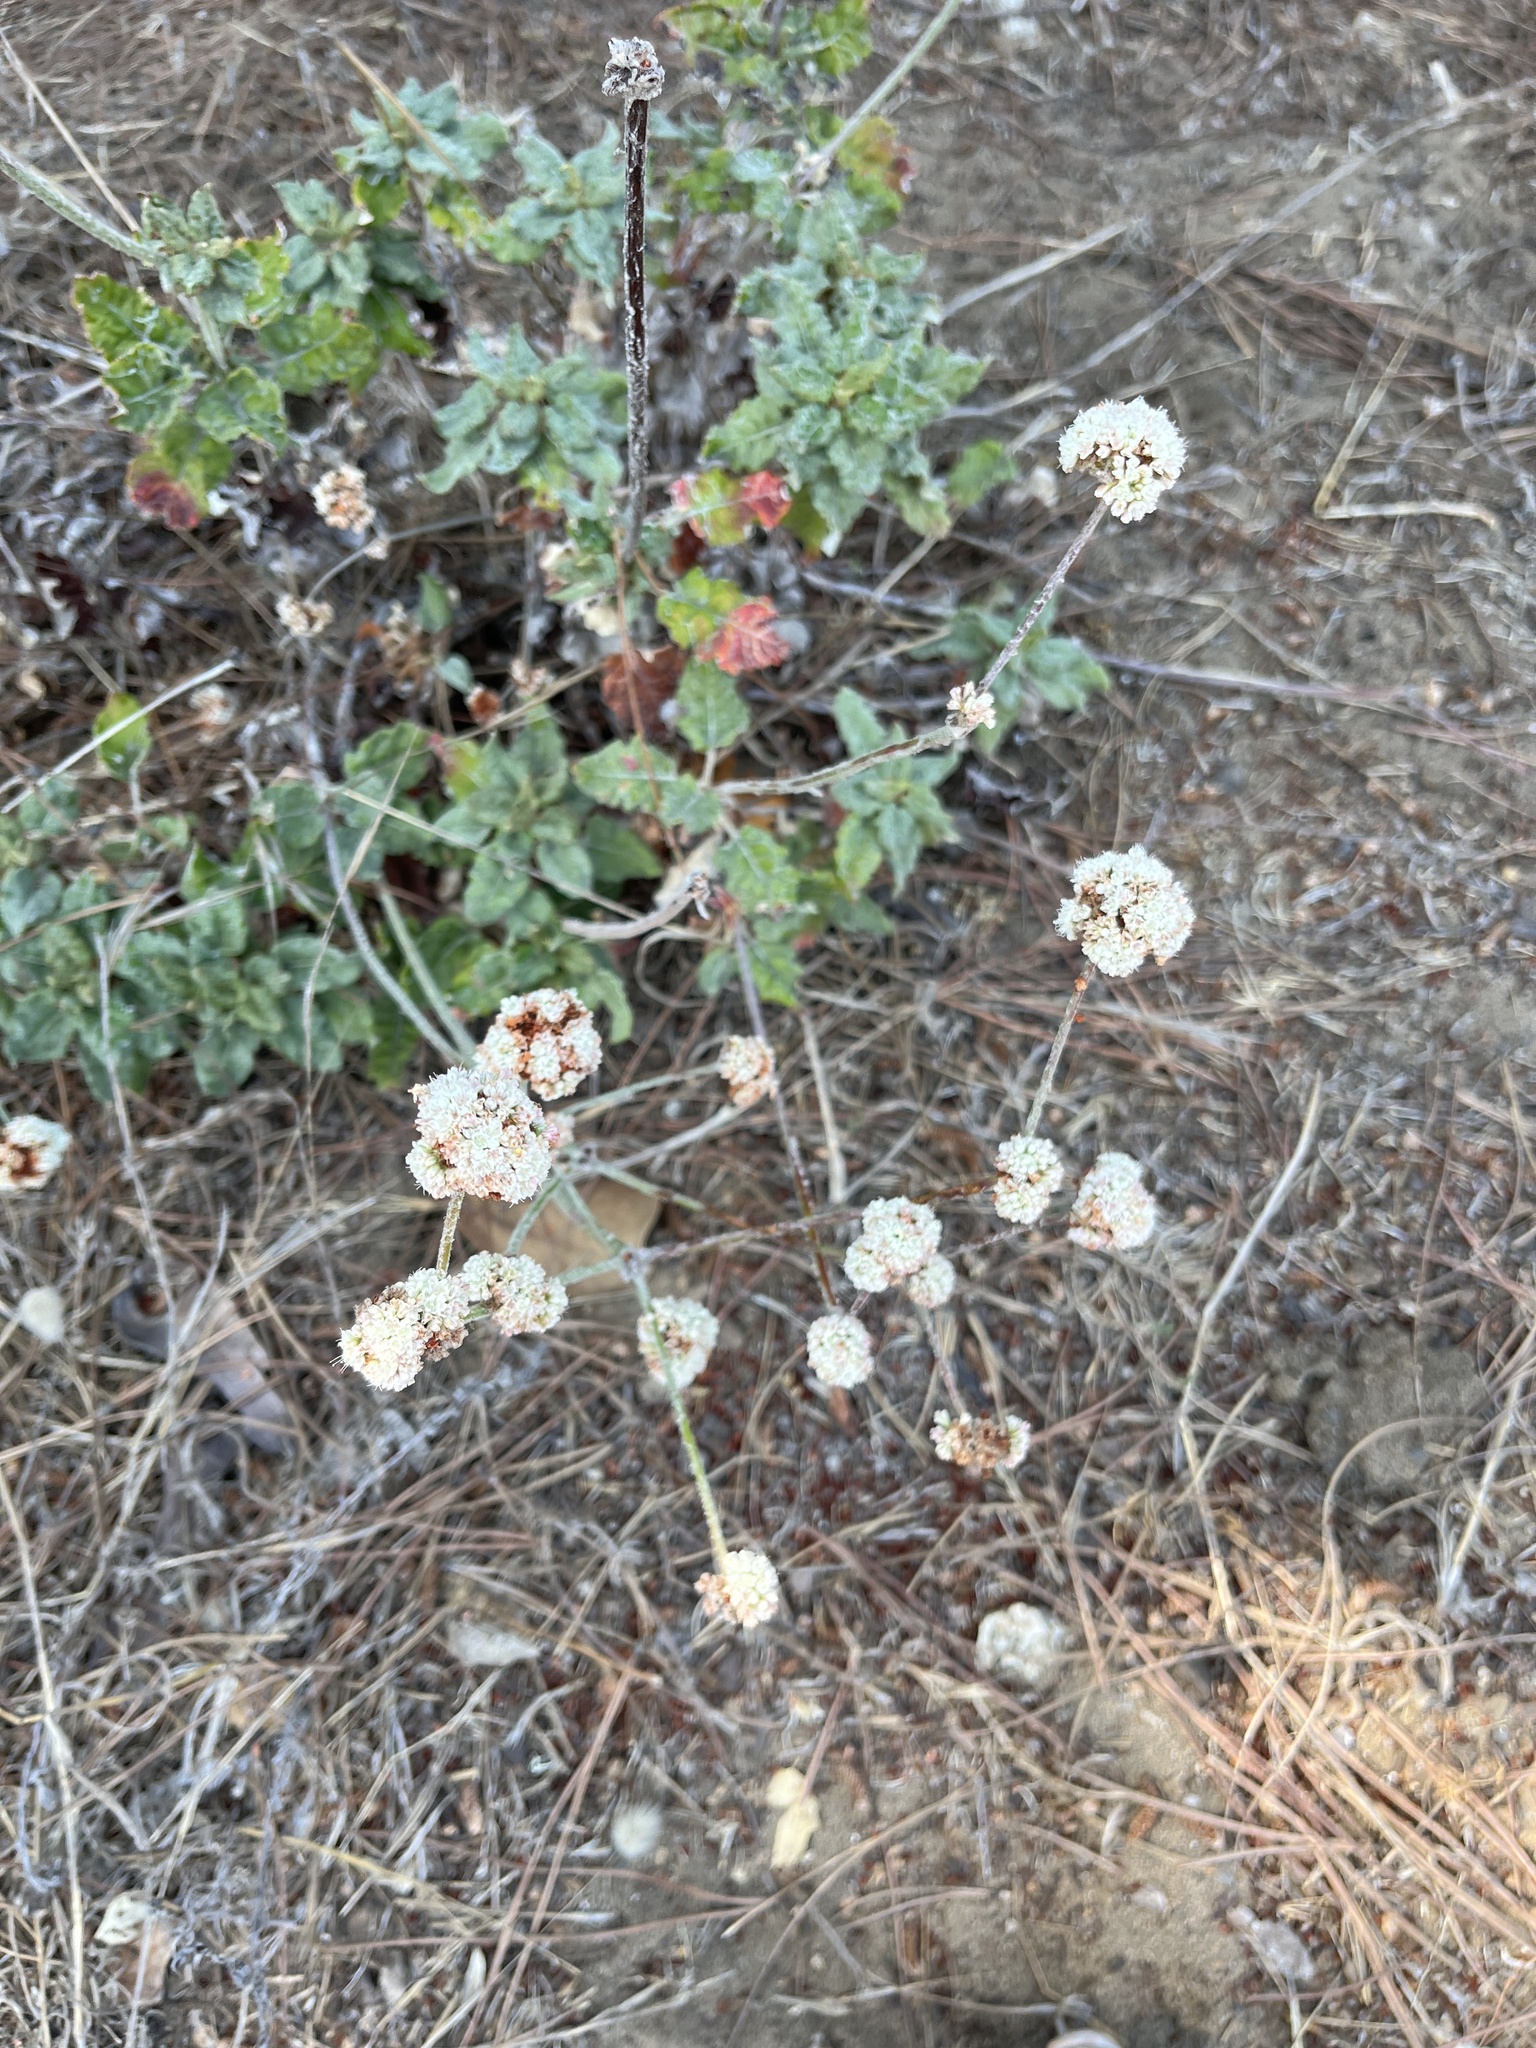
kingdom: Plantae
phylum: Tracheophyta
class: Magnoliopsida
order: Caryophyllales
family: Polygonaceae
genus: Eriogonum
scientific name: Eriogonum latifolium
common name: Seaside wild buckwheat
